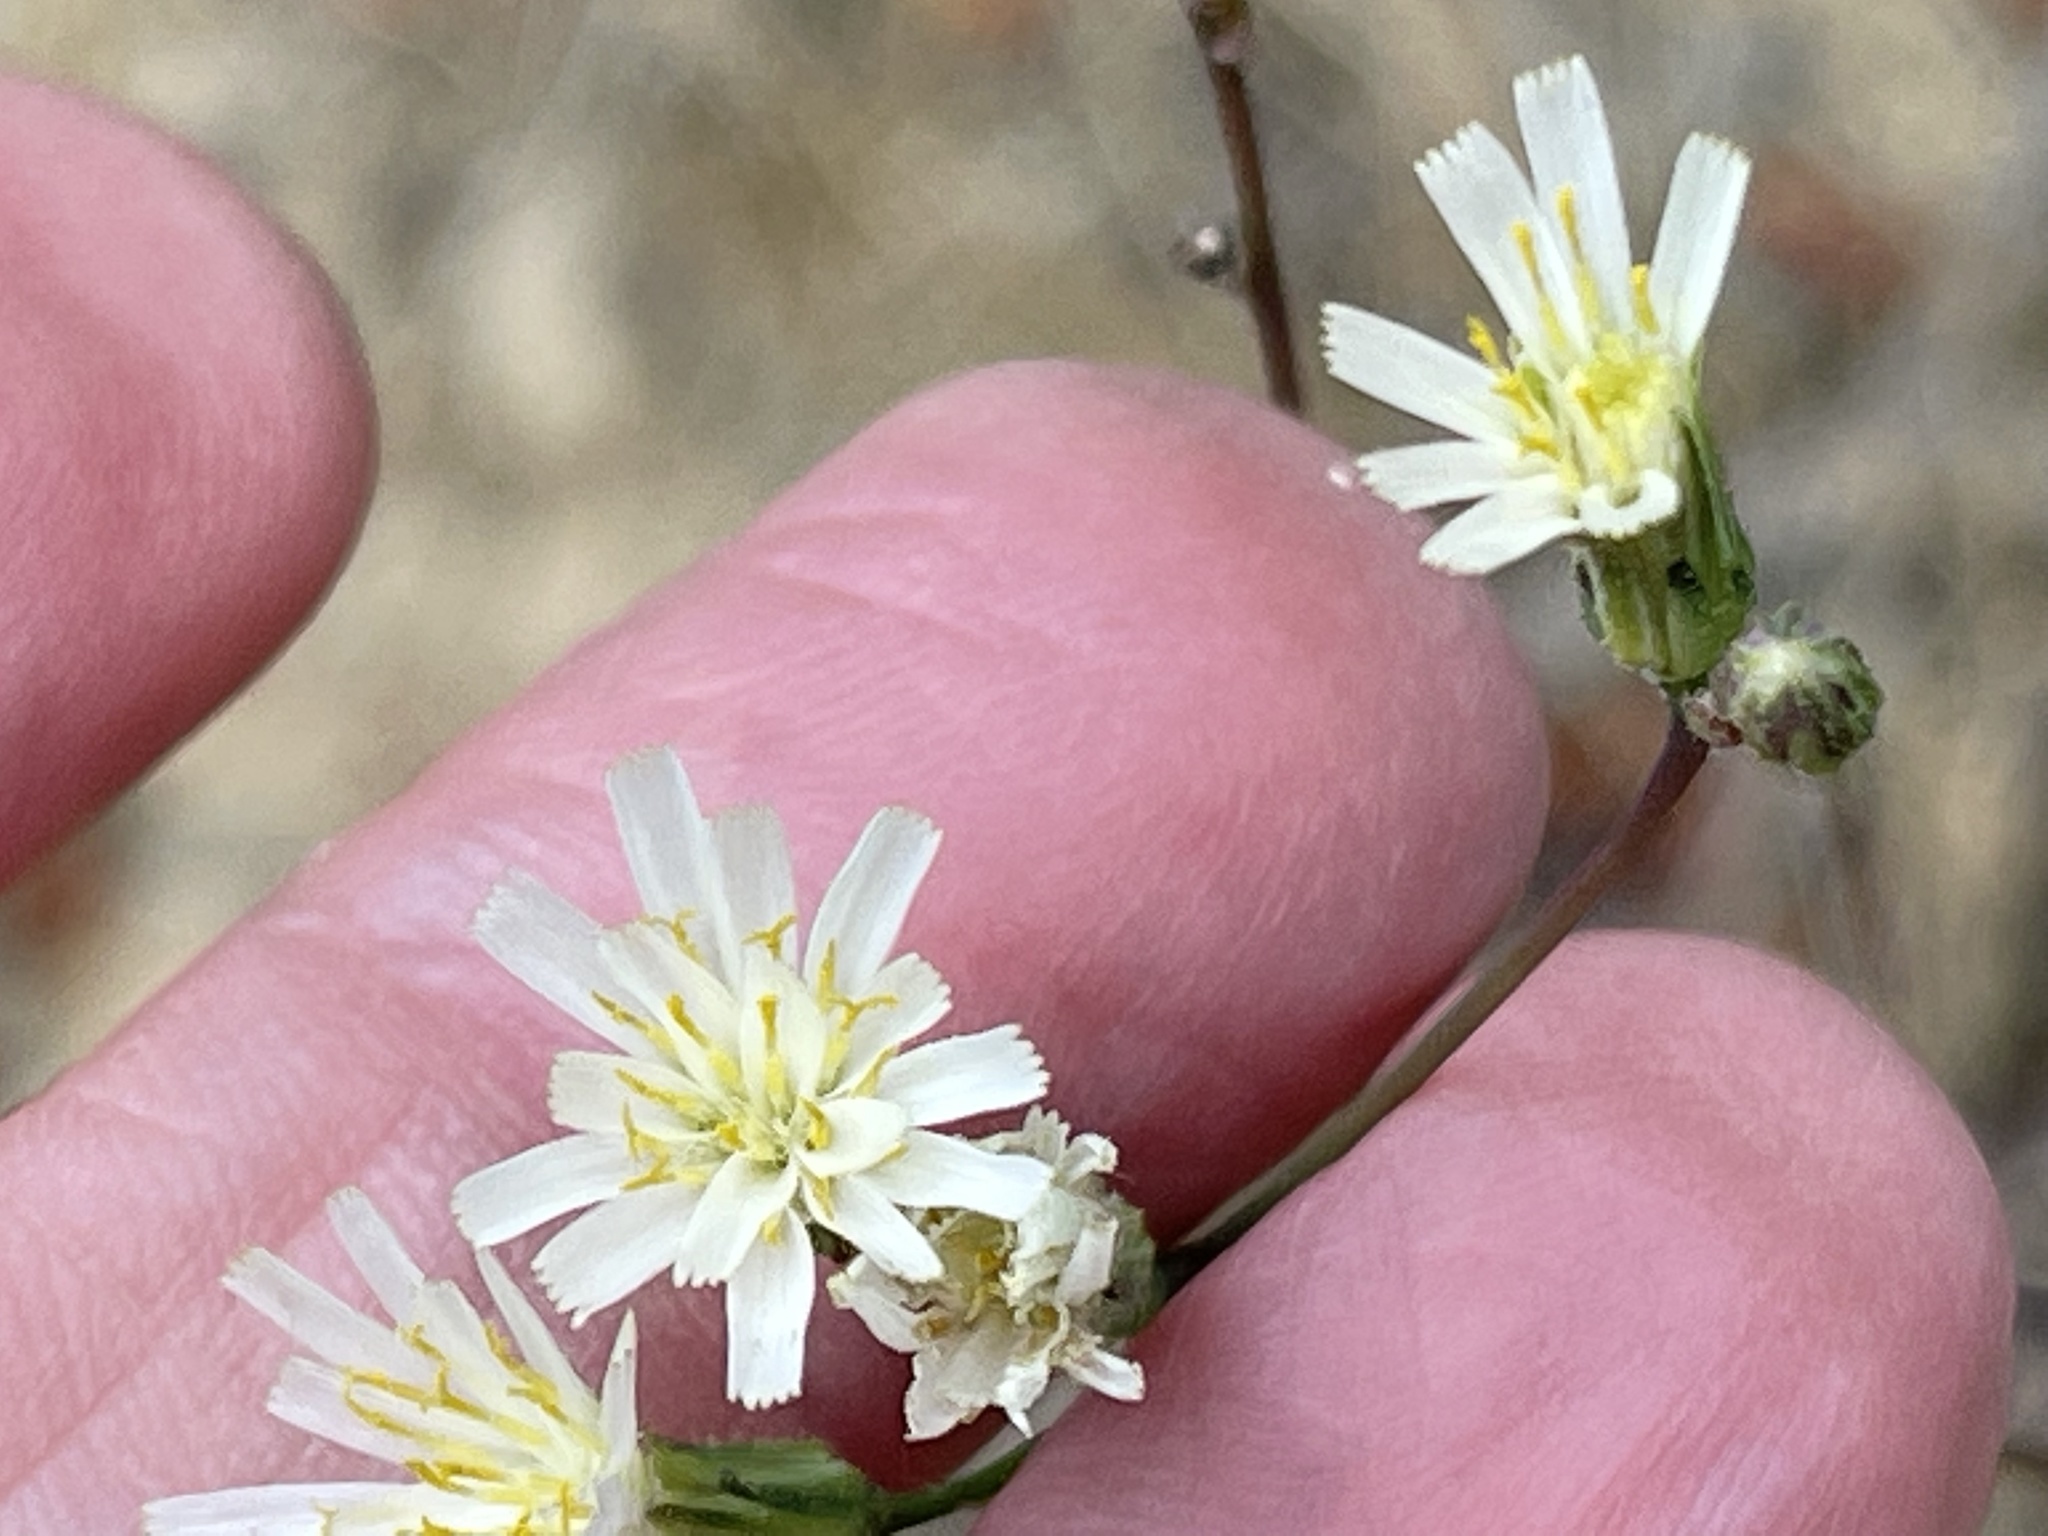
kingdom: Plantae
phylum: Tracheophyta
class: Magnoliopsida
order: Asterales
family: Asteraceae
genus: Hieracium
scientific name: Hieracium albiflorum
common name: White hawkweed
